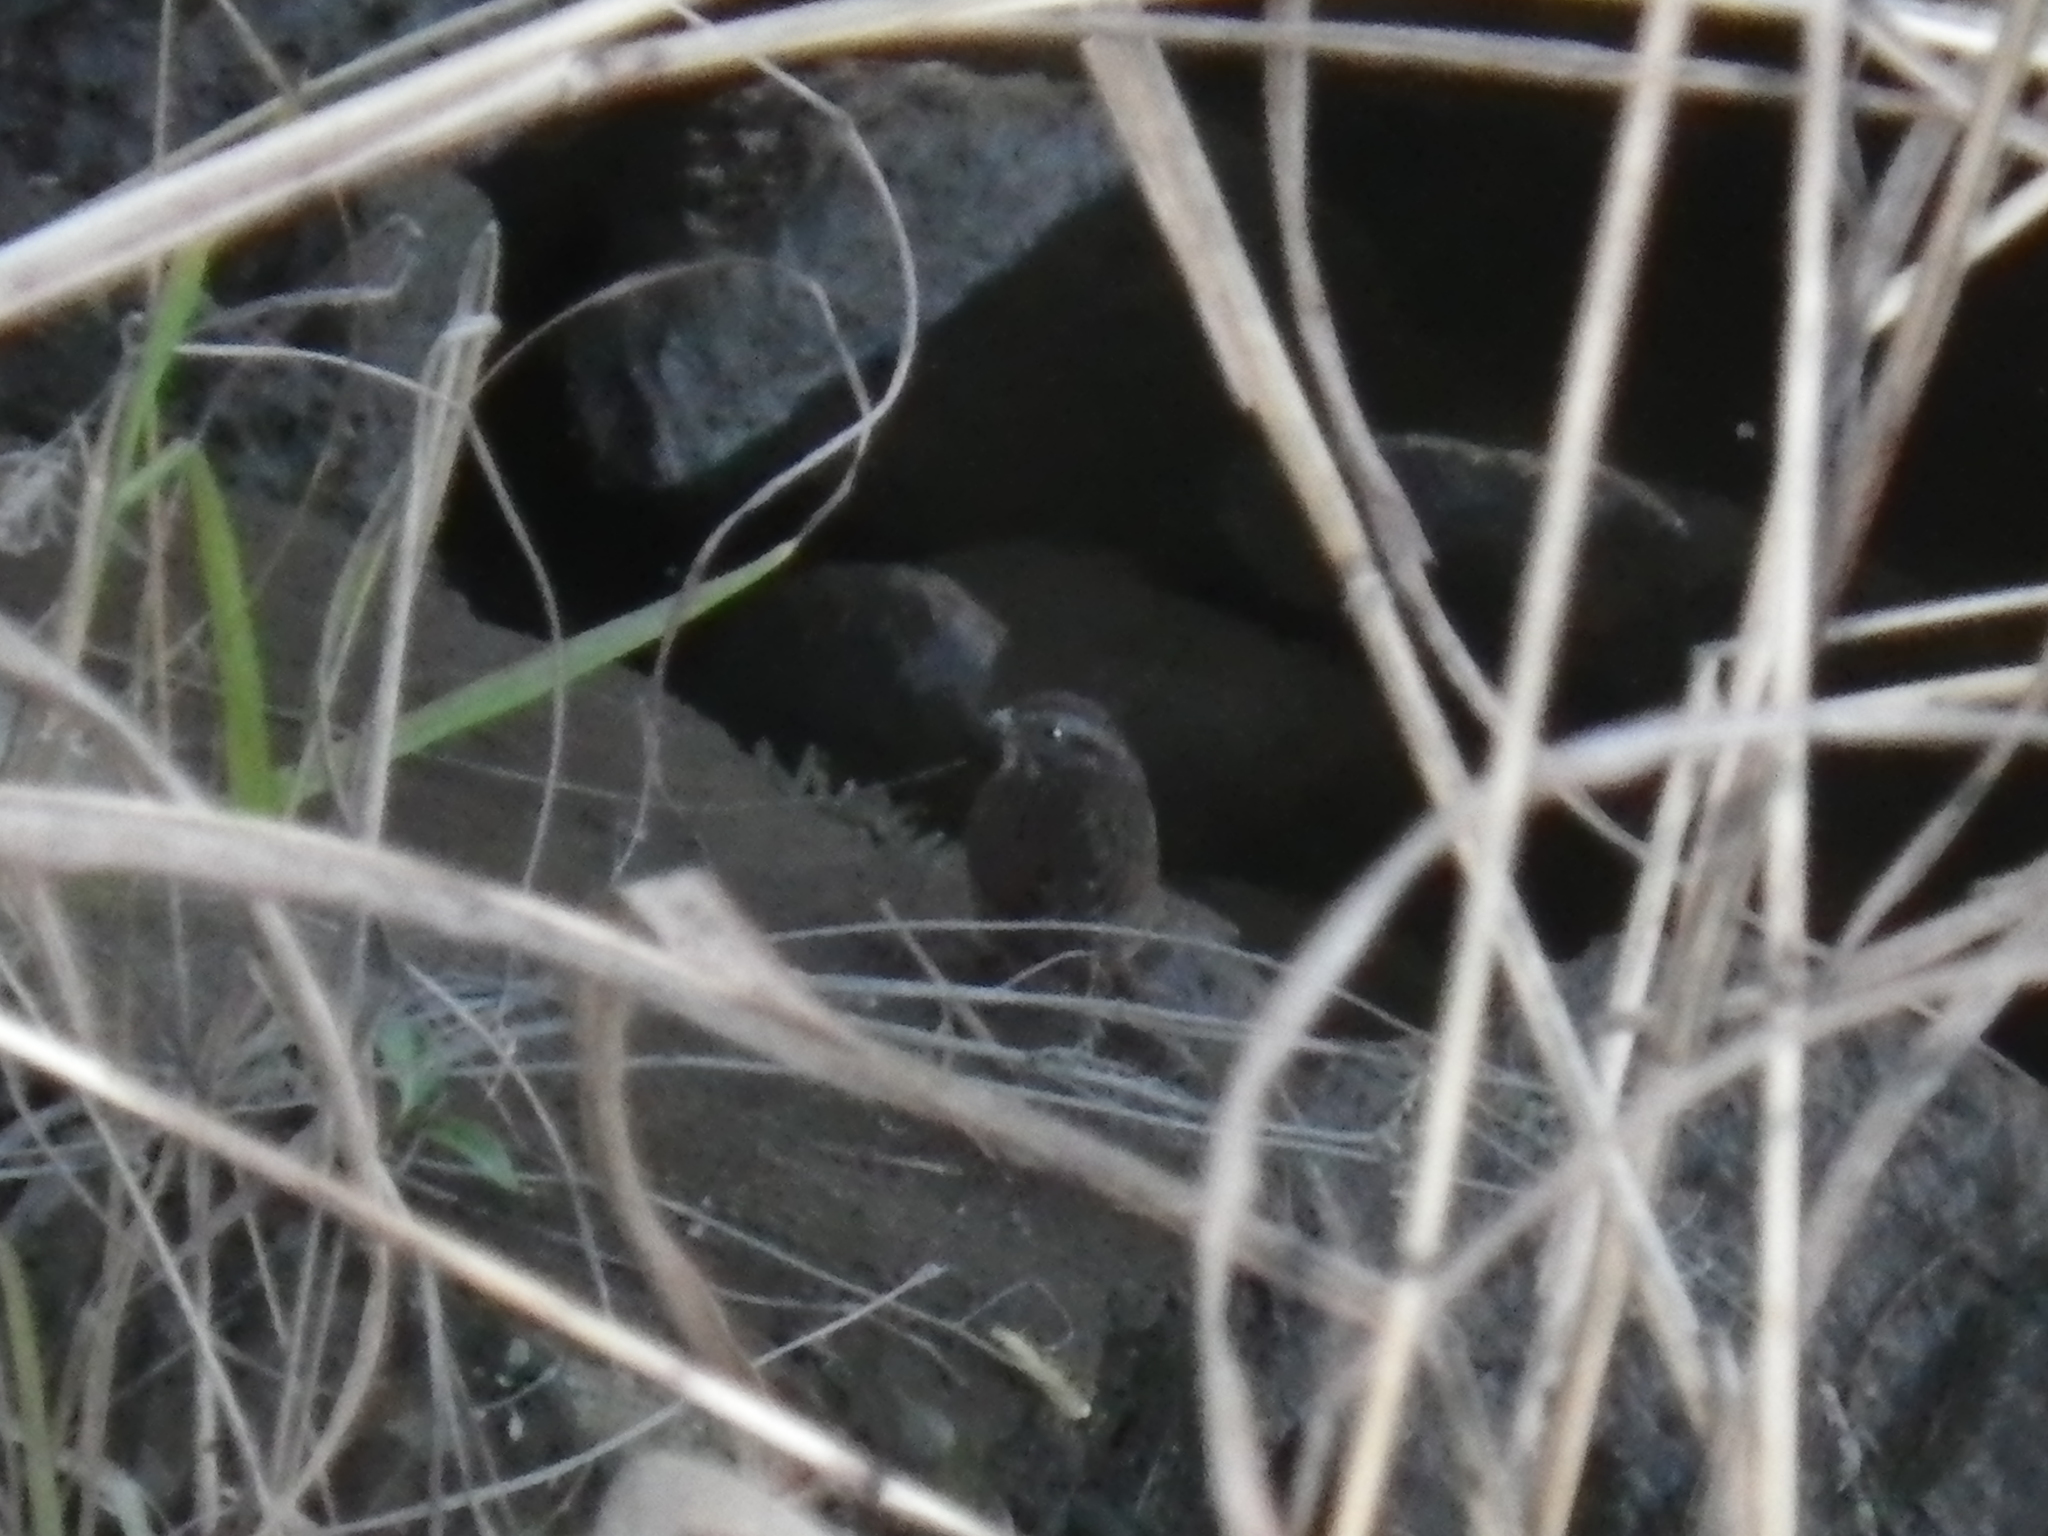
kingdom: Animalia
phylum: Chordata
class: Aves
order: Passeriformes
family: Passerellidae
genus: Melospiza
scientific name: Melospiza melodia
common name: Song sparrow
